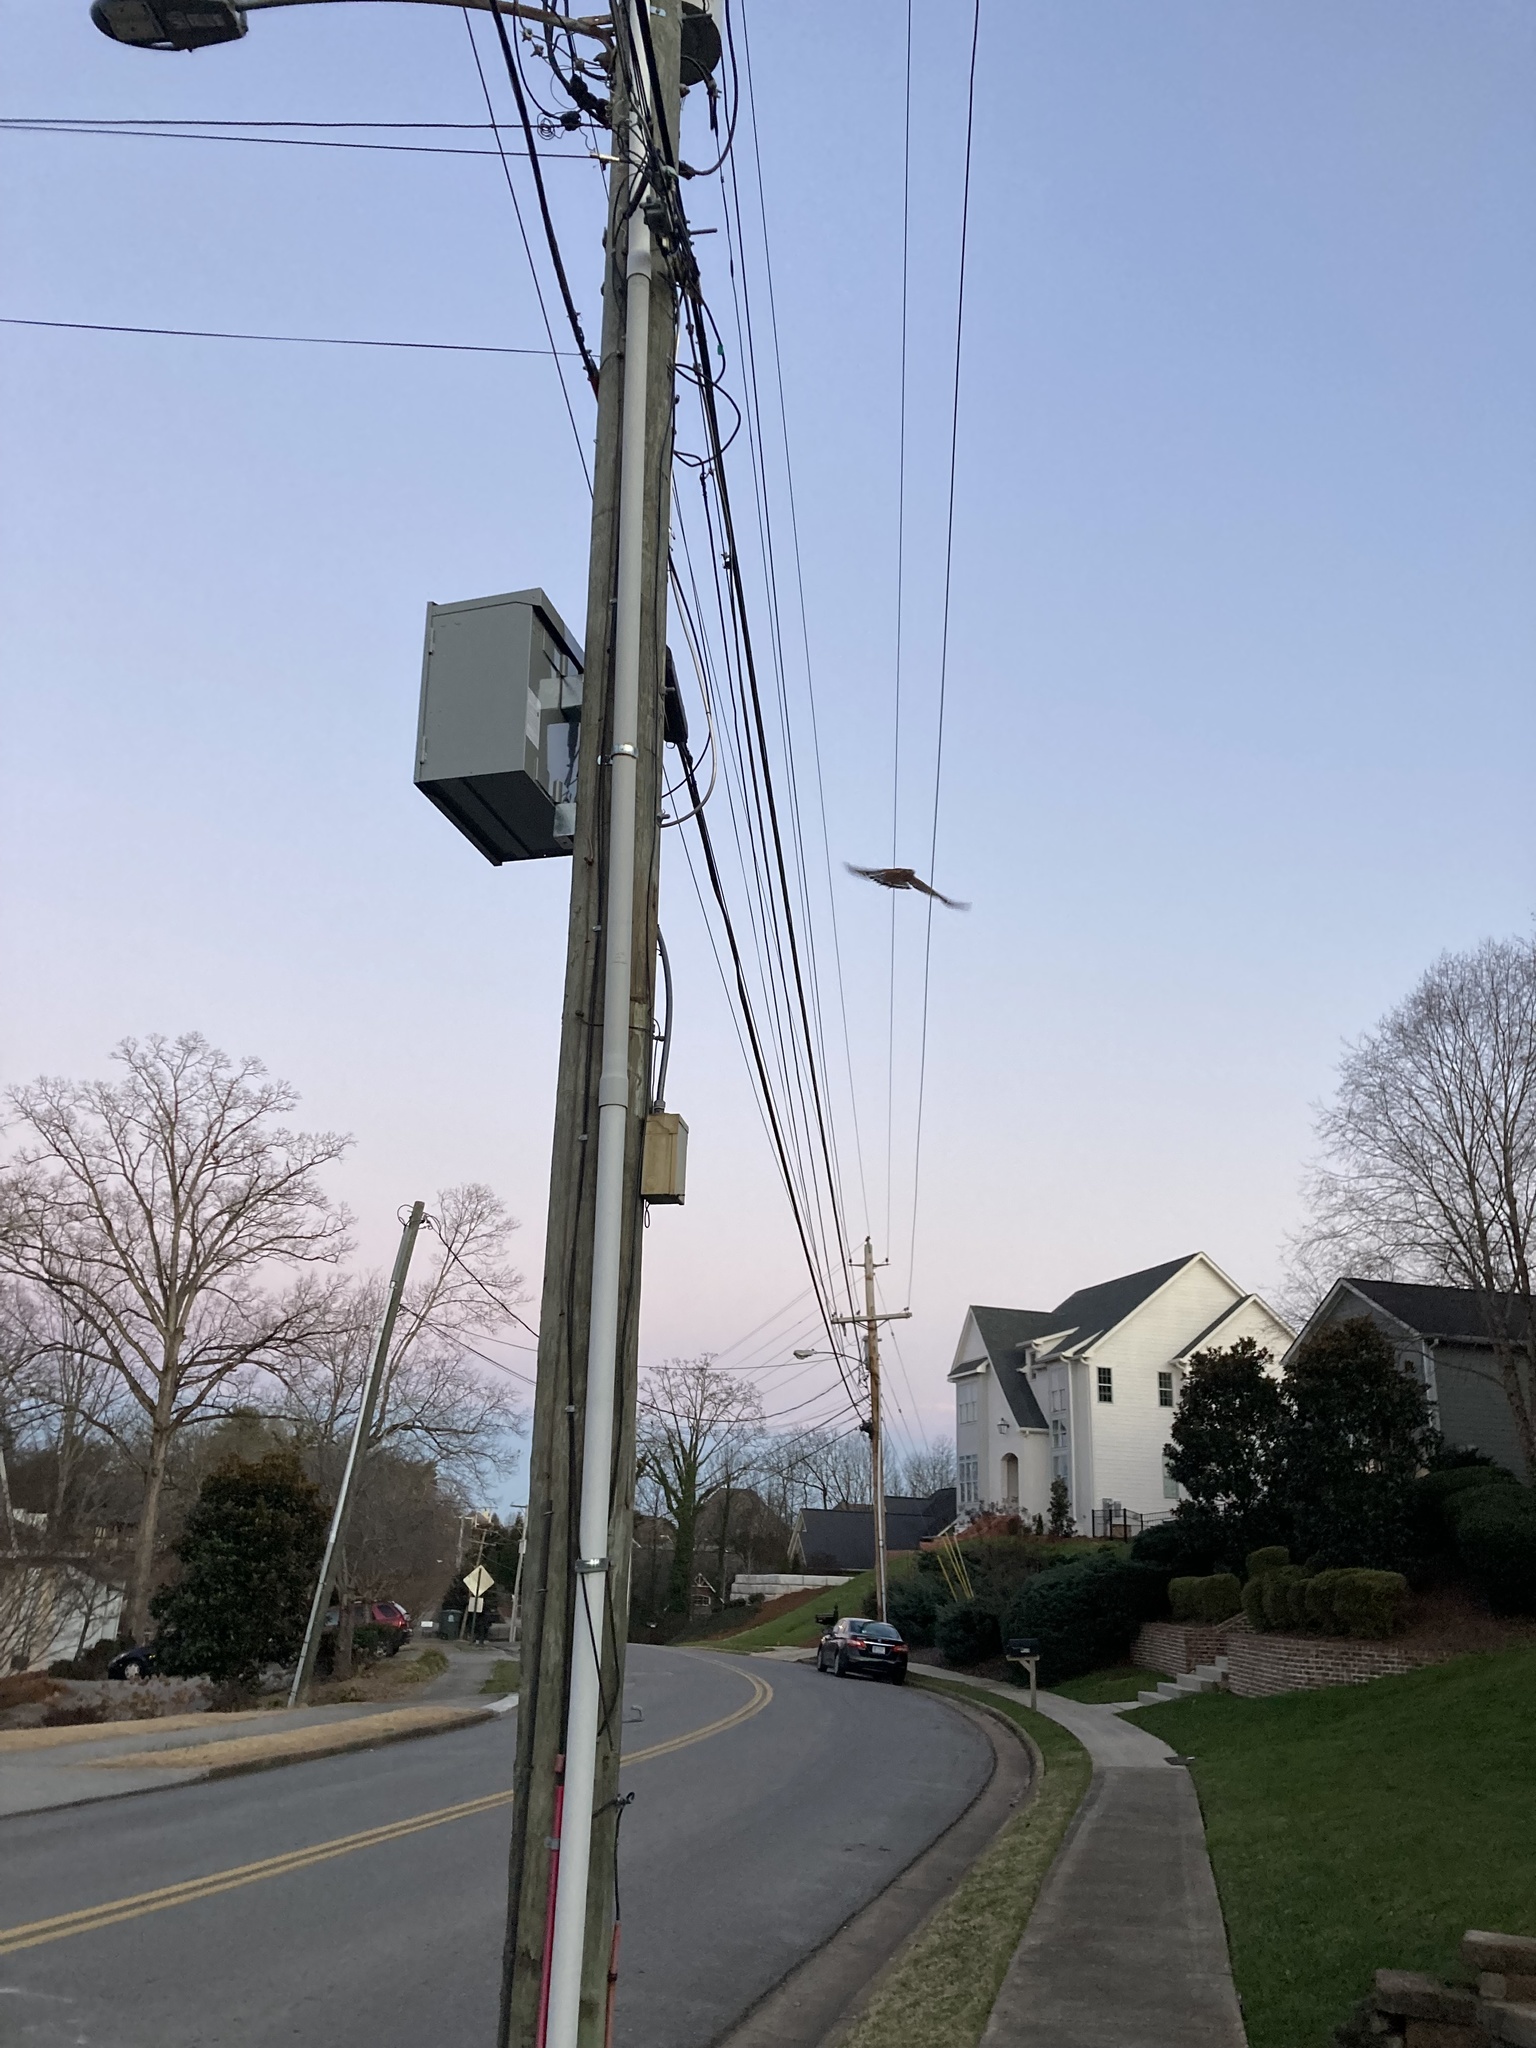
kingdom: Animalia
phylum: Chordata
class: Aves
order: Accipitriformes
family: Accipitridae
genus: Buteo
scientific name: Buteo lineatus
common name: Red-shouldered hawk
